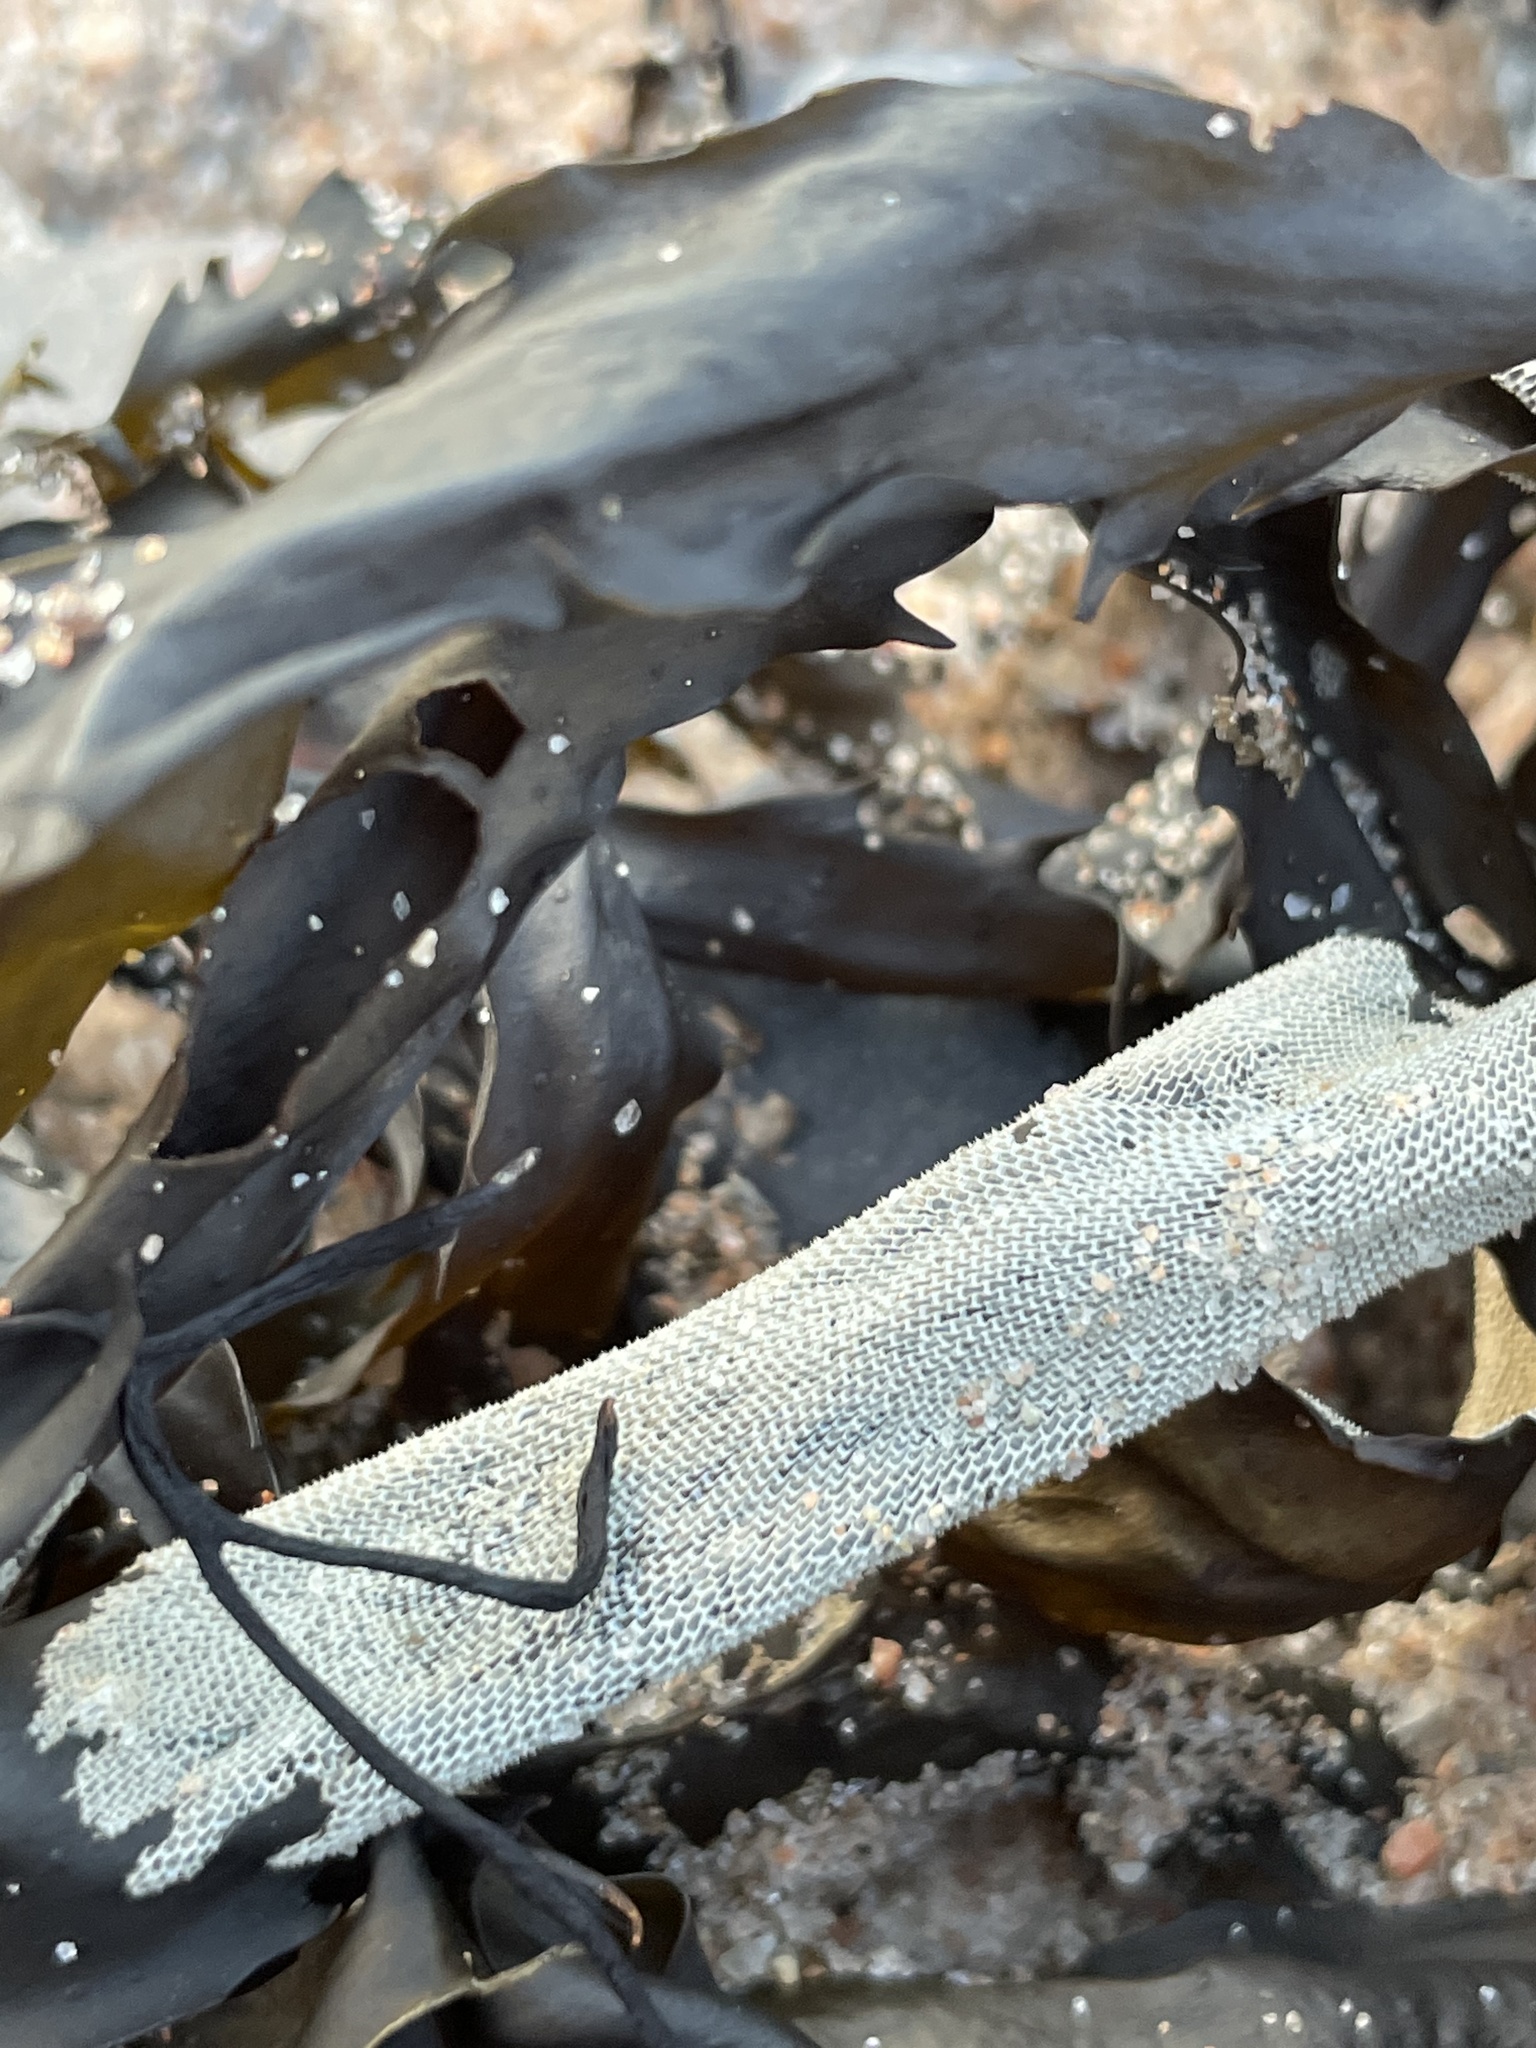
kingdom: Animalia
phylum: Bryozoa
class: Gymnolaemata
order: Cheilostomatida
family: Membraniporidae
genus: Membranipora
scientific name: Membranipora membranacea
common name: Sea mat
